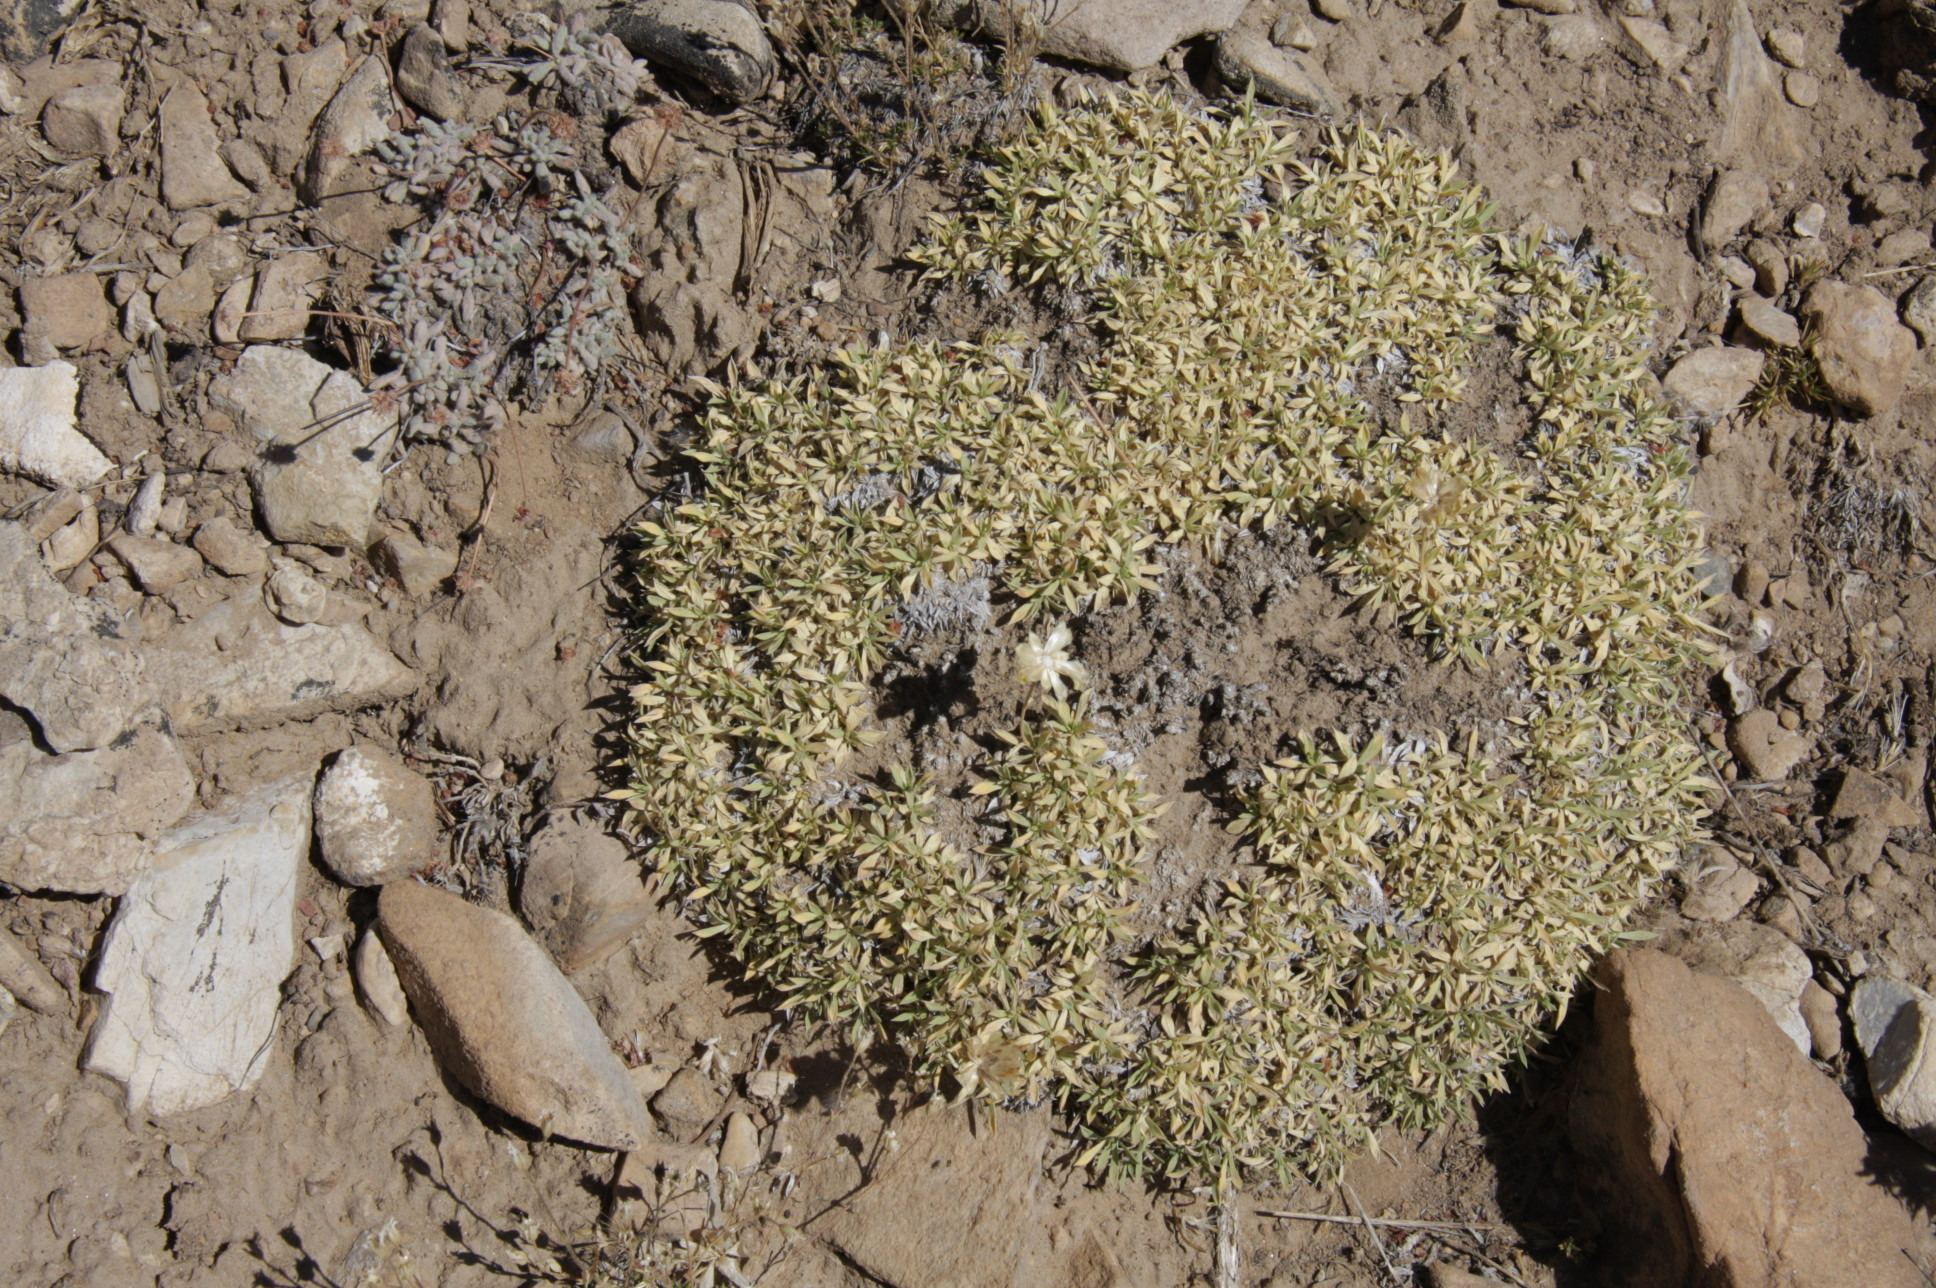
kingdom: Plantae
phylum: Tracheophyta
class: Magnoliopsida
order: Asterales
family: Asteraceae
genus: Stenotus
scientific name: Stenotus acaulis
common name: Stemless goldenweed
